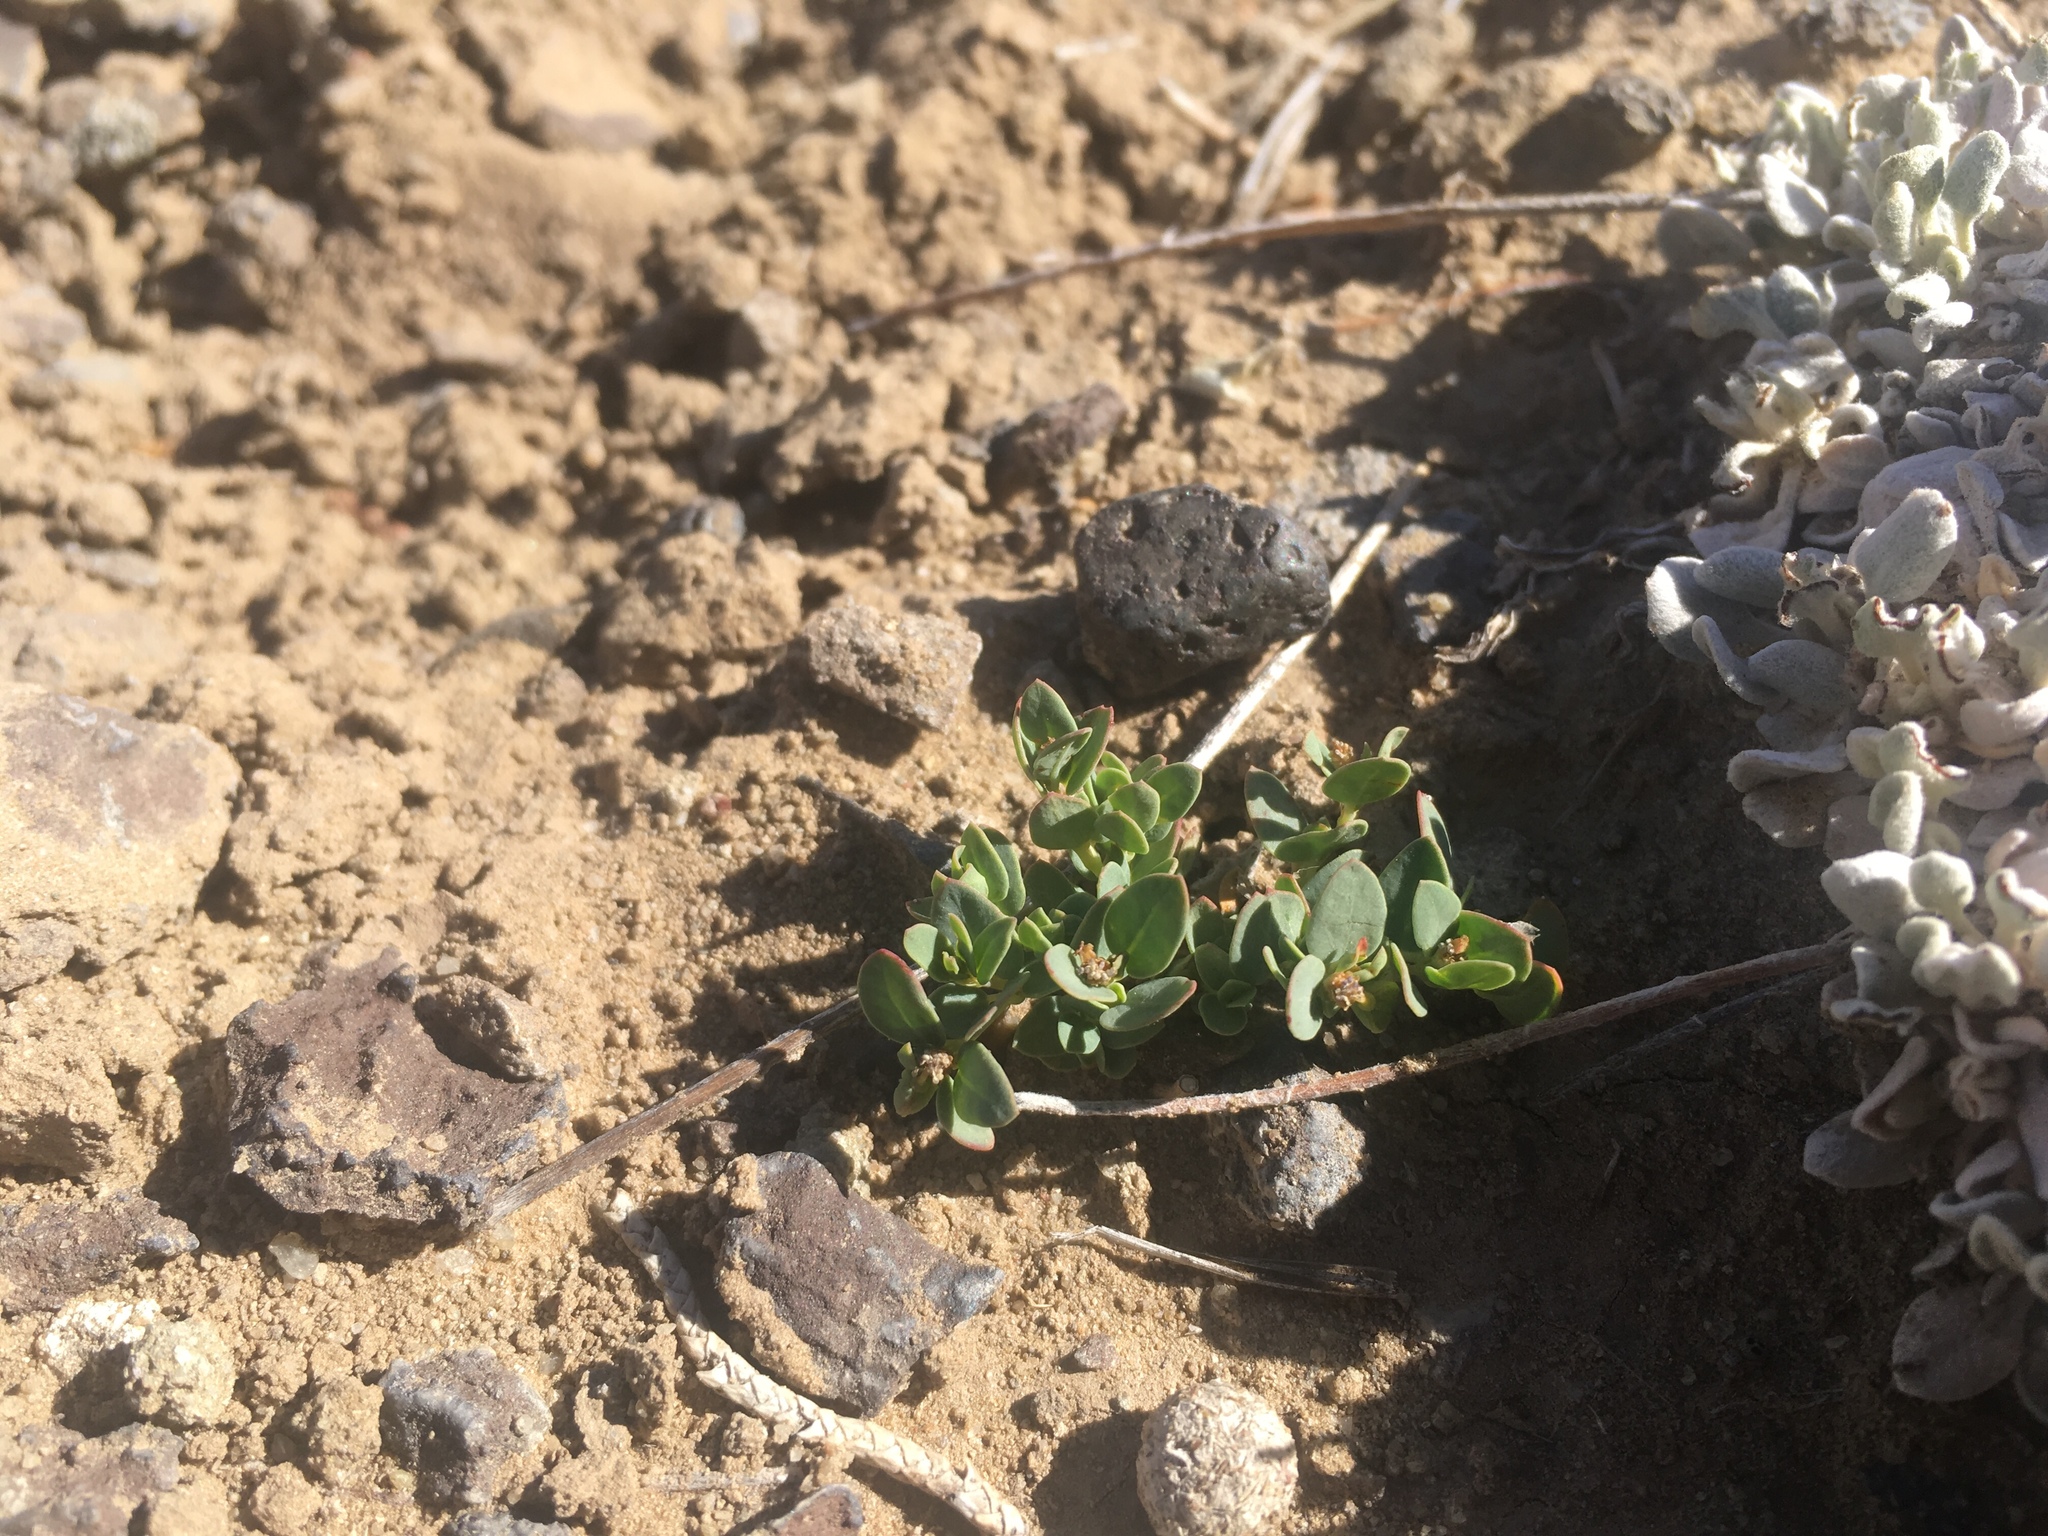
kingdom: Plantae
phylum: Tracheophyta
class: Magnoliopsida
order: Malpighiales
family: Euphorbiaceae
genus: Euphorbia
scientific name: Euphorbia fendleri
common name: Fendler's euphorbia
